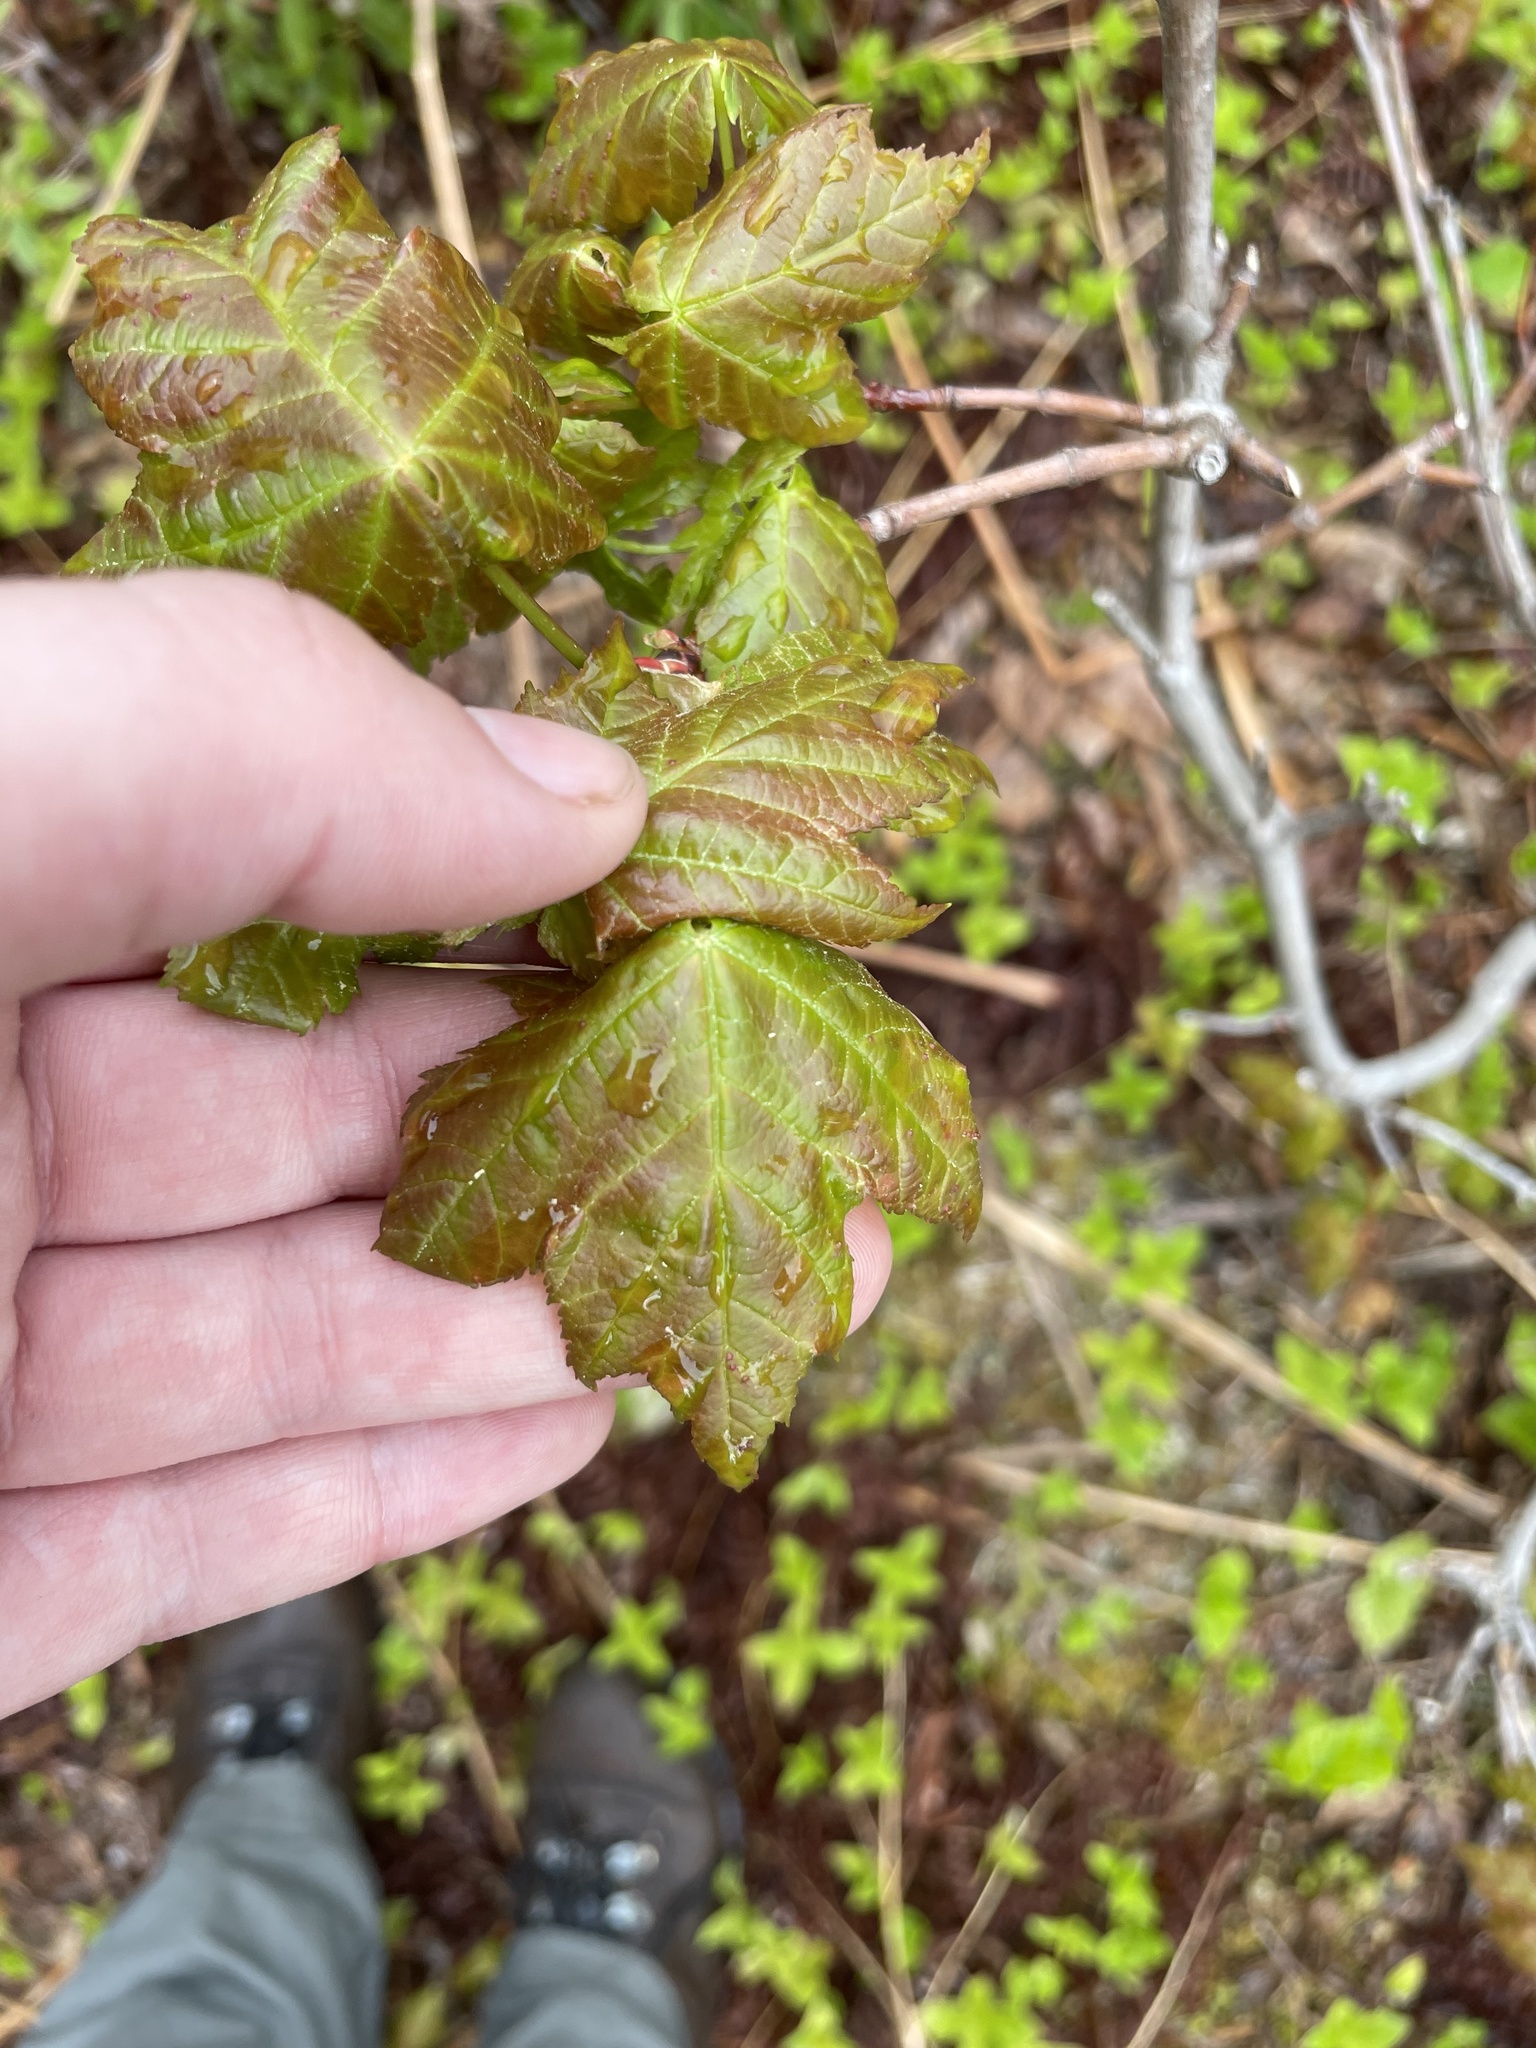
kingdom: Plantae
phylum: Tracheophyta
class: Magnoliopsida
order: Sapindales
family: Sapindaceae
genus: Acer
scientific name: Acer rubrum
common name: Red maple
